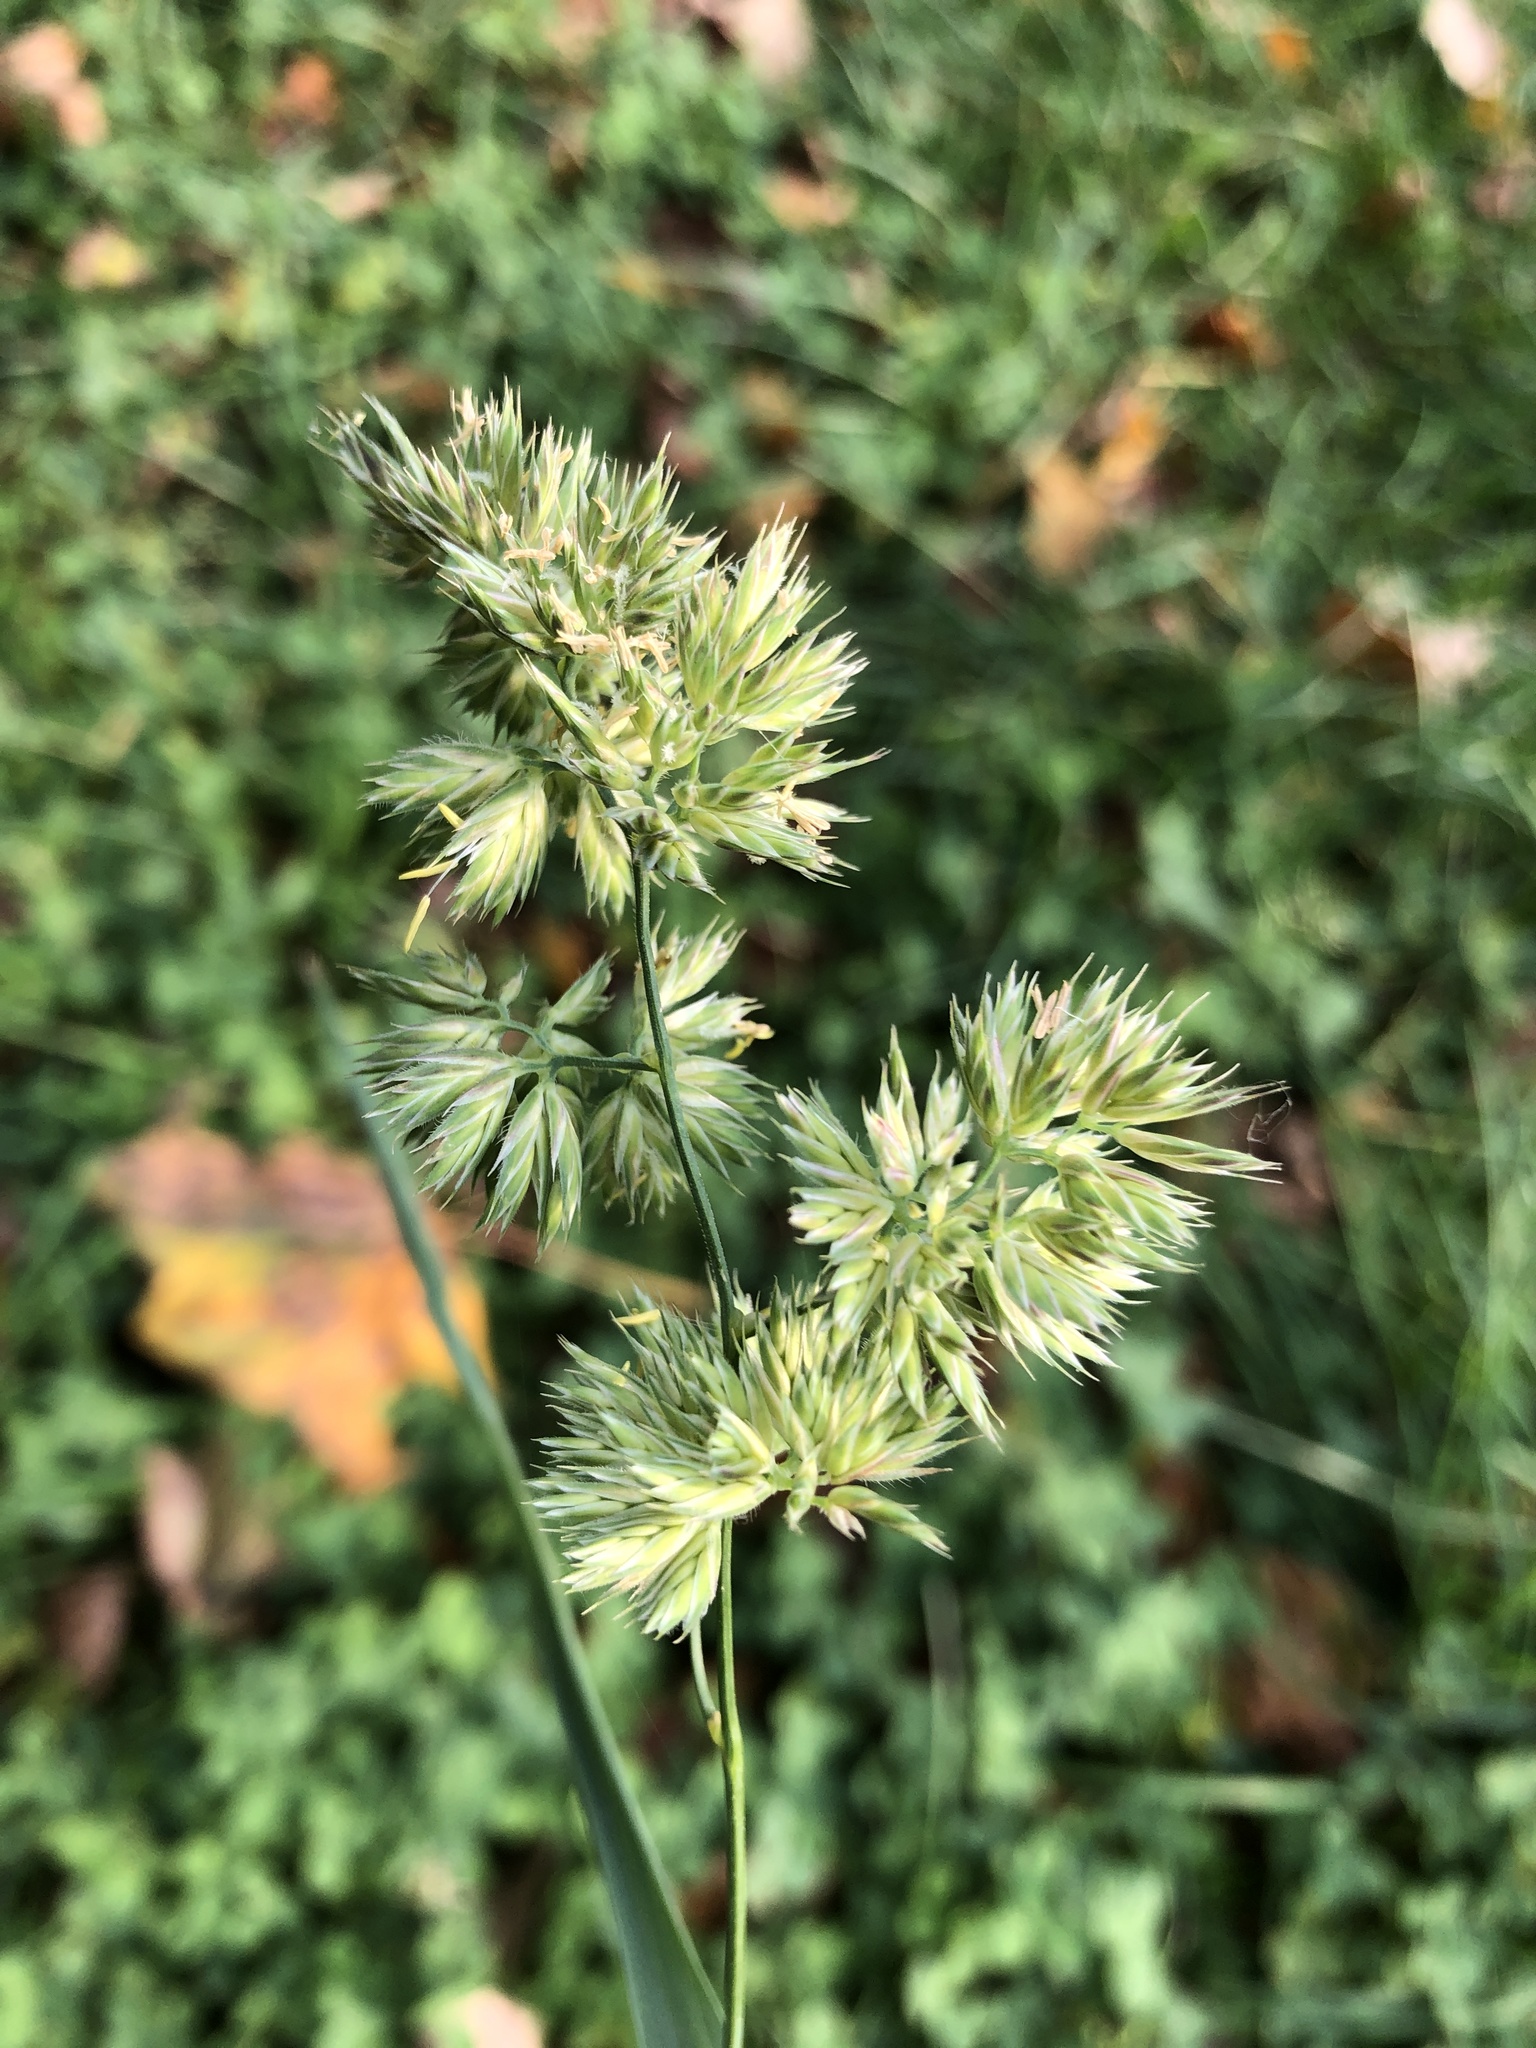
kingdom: Plantae
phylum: Tracheophyta
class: Liliopsida
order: Poales
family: Poaceae
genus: Dactylis
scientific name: Dactylis glomerata
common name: Orchardgrass
